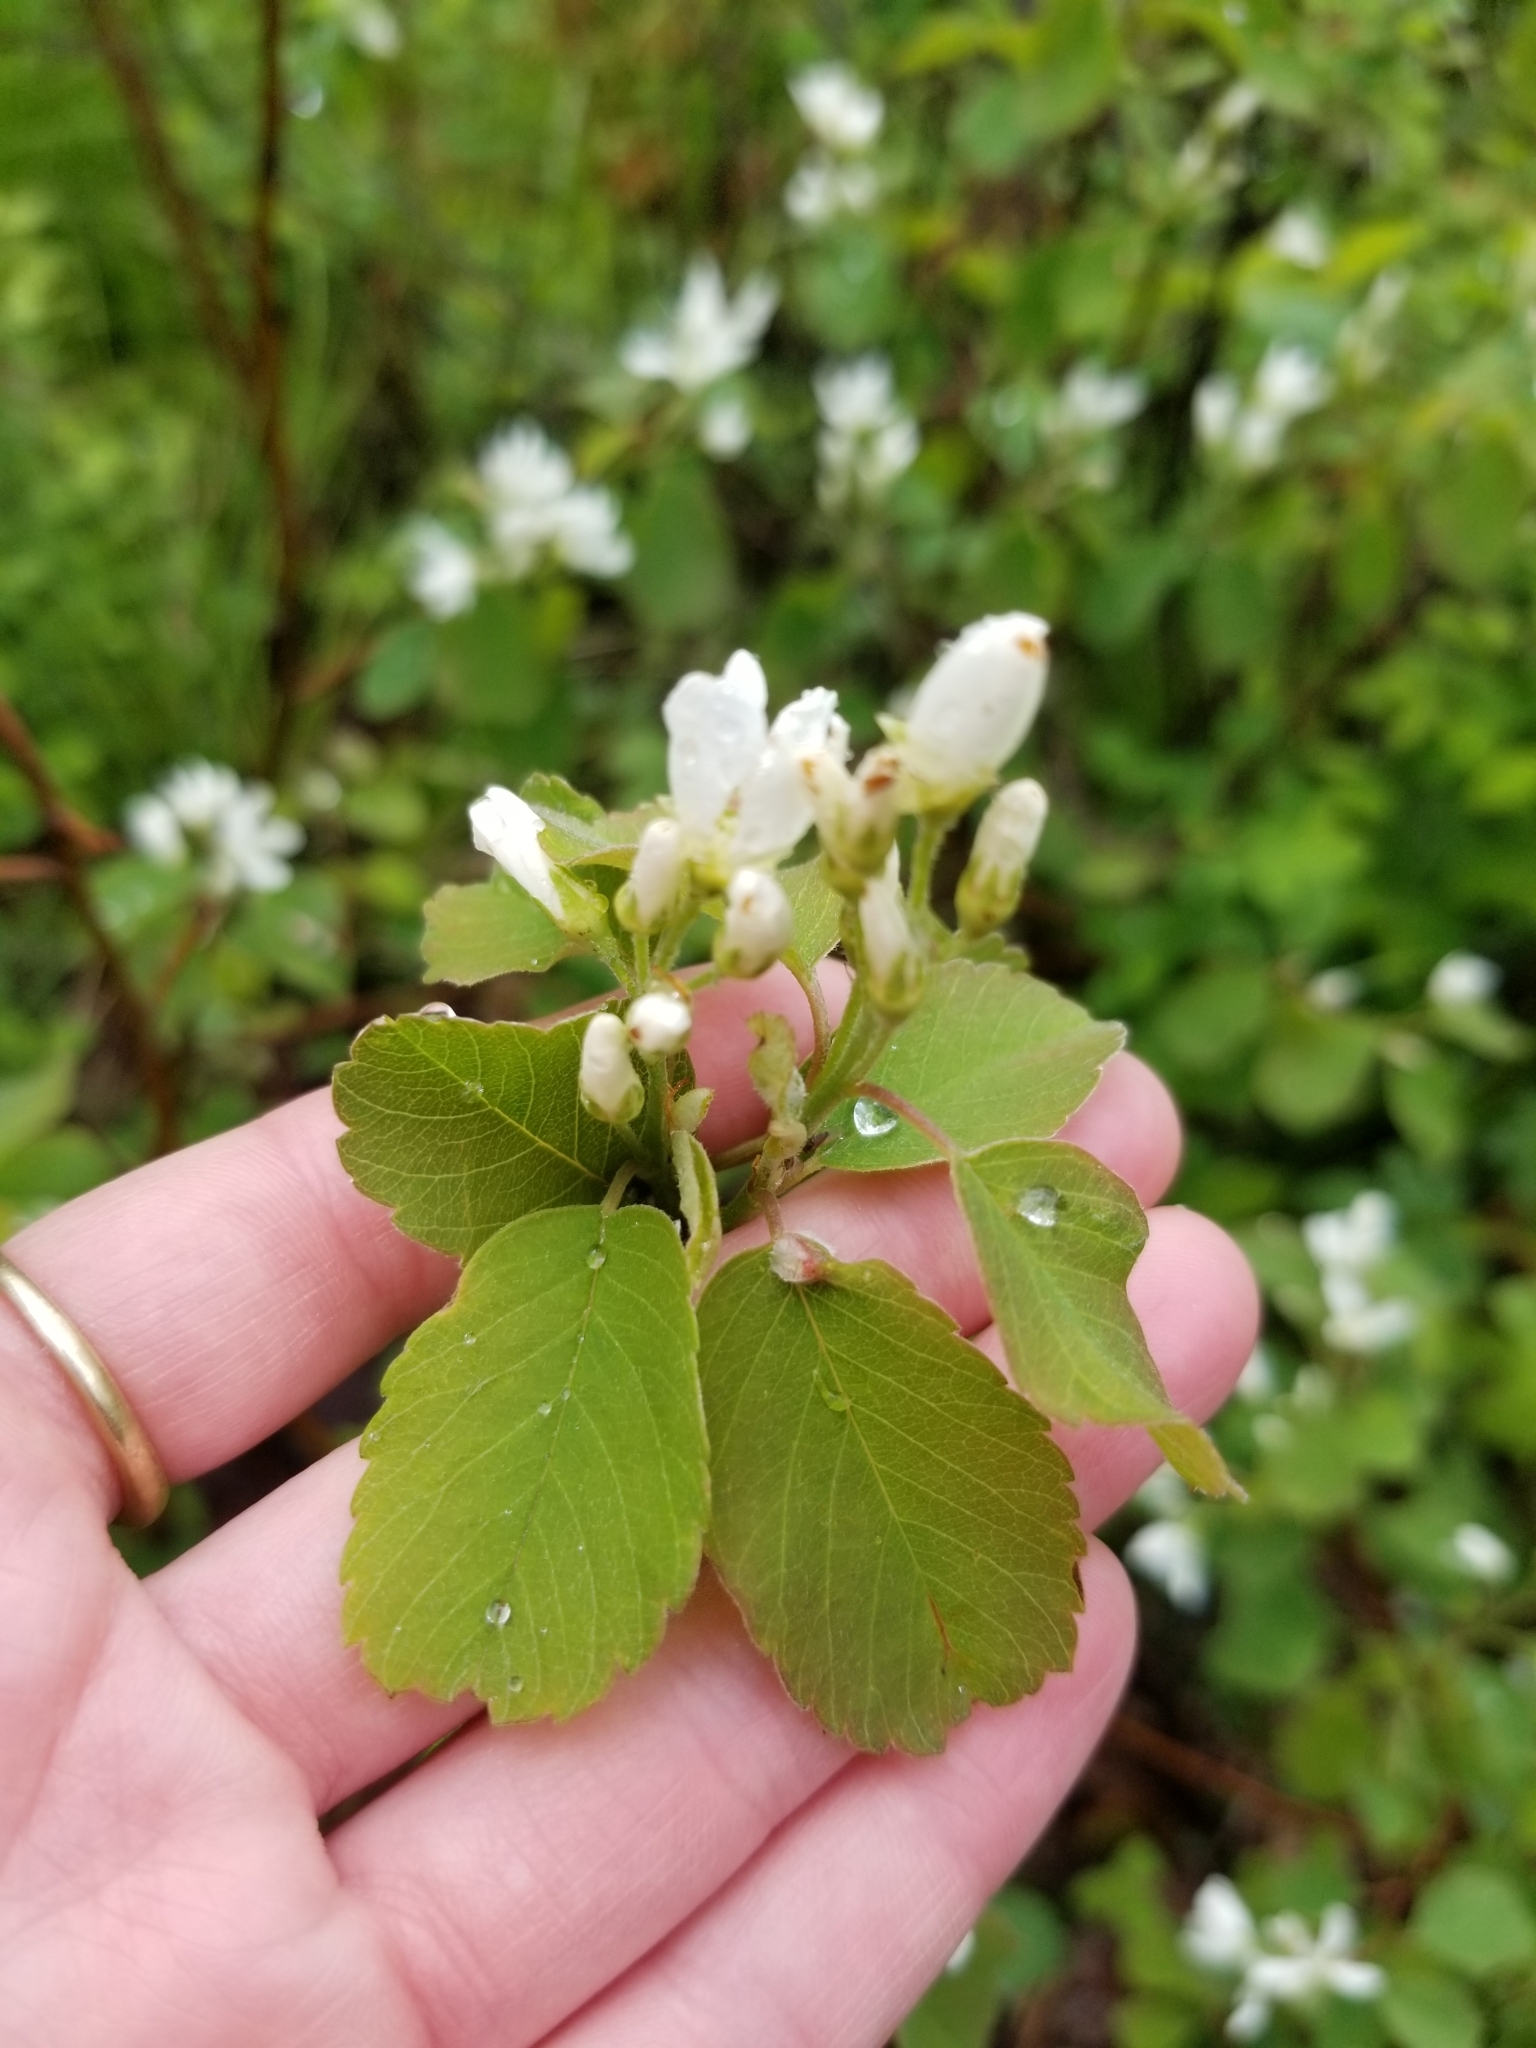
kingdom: Plantae
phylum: Tracheophyta
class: Magnoliopsida
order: Rosales
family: Rosaceae
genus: Amelanchier
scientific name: Amelanchier alnifolia
